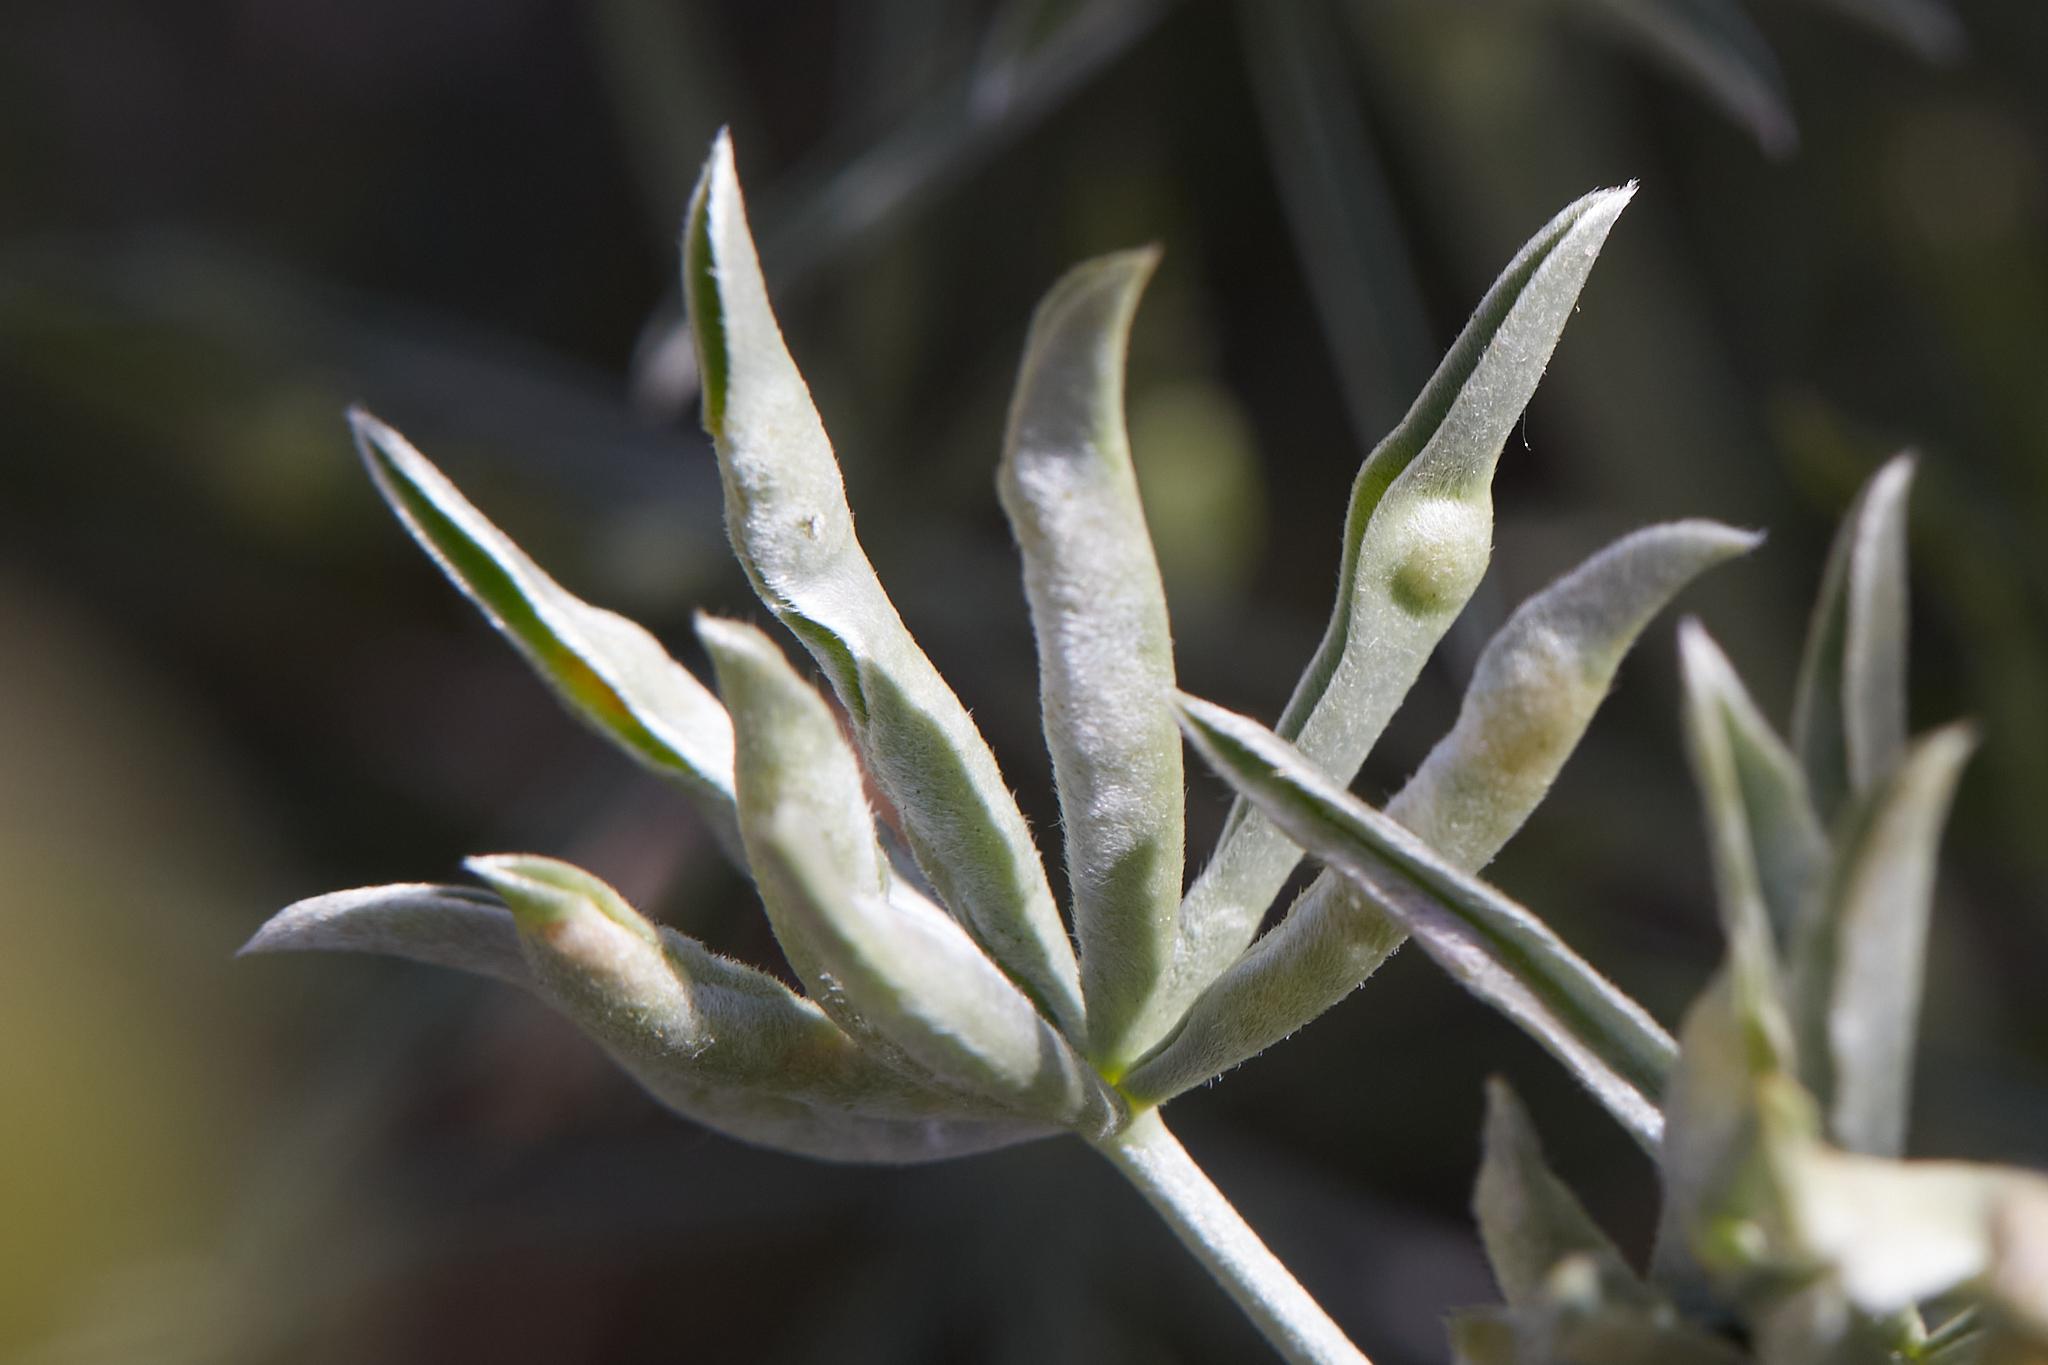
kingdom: Animalia
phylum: Arthropoda
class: Insecta
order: Diptera
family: Cecidomyiidae
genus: Dasineura
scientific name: Dasineura lupinorum
